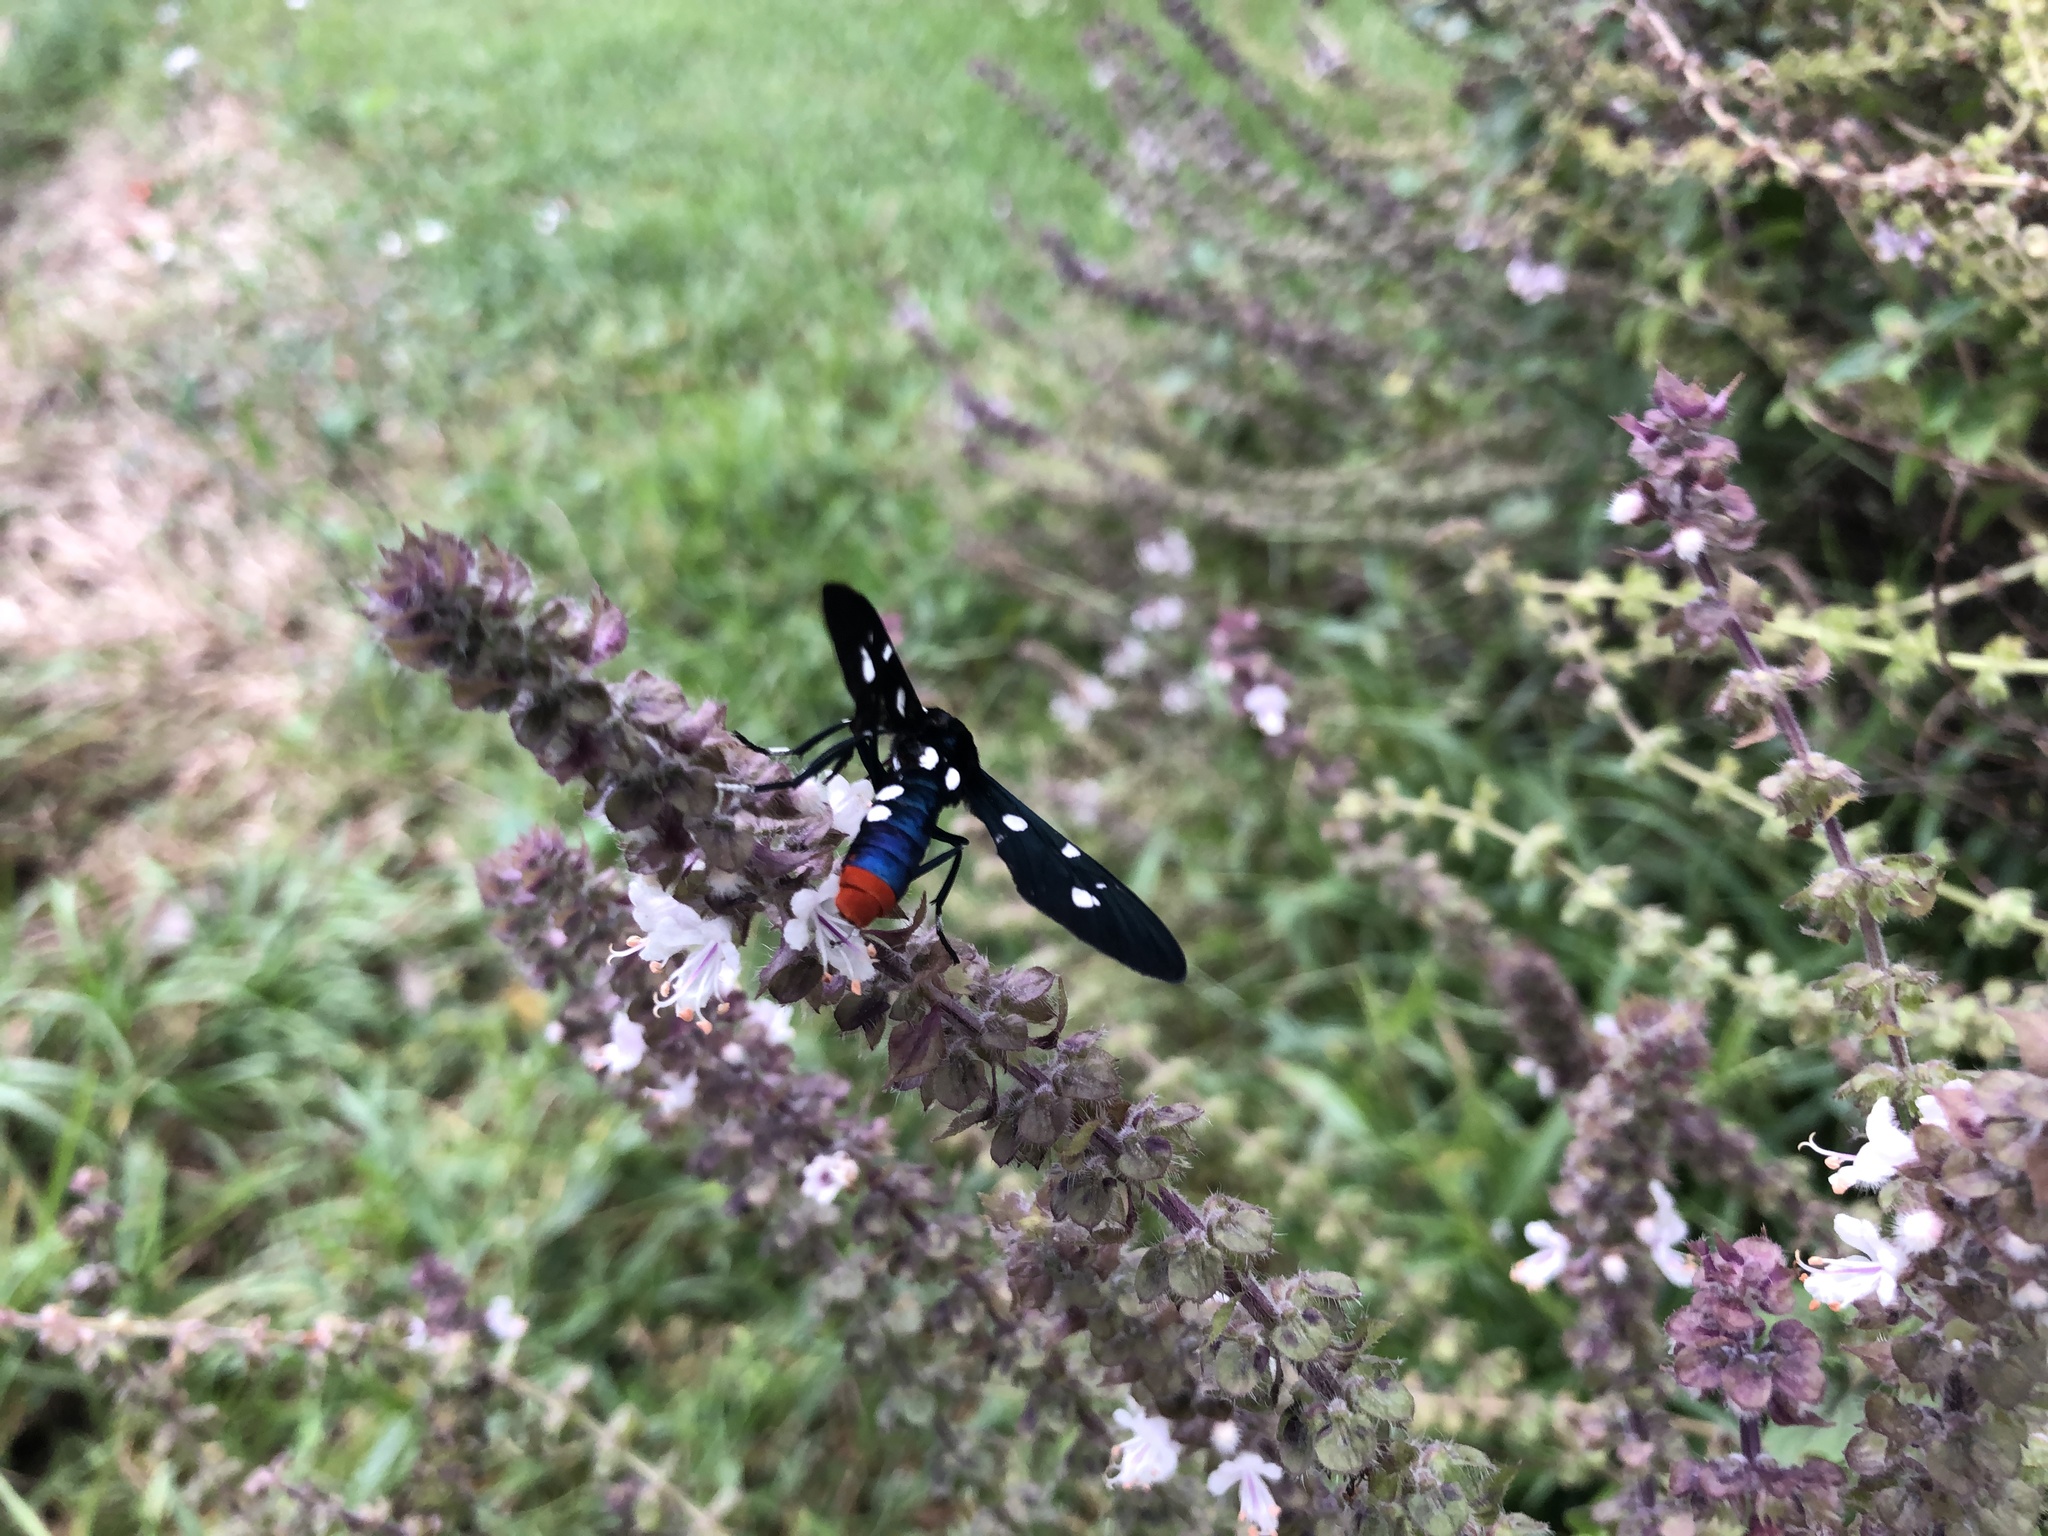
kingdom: Animalia
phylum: Arthropoda
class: Insecta
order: Lepidoptera
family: Erebidae
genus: Syntomeida
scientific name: Syntomeida epilais
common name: Polka-dot wasp moth
